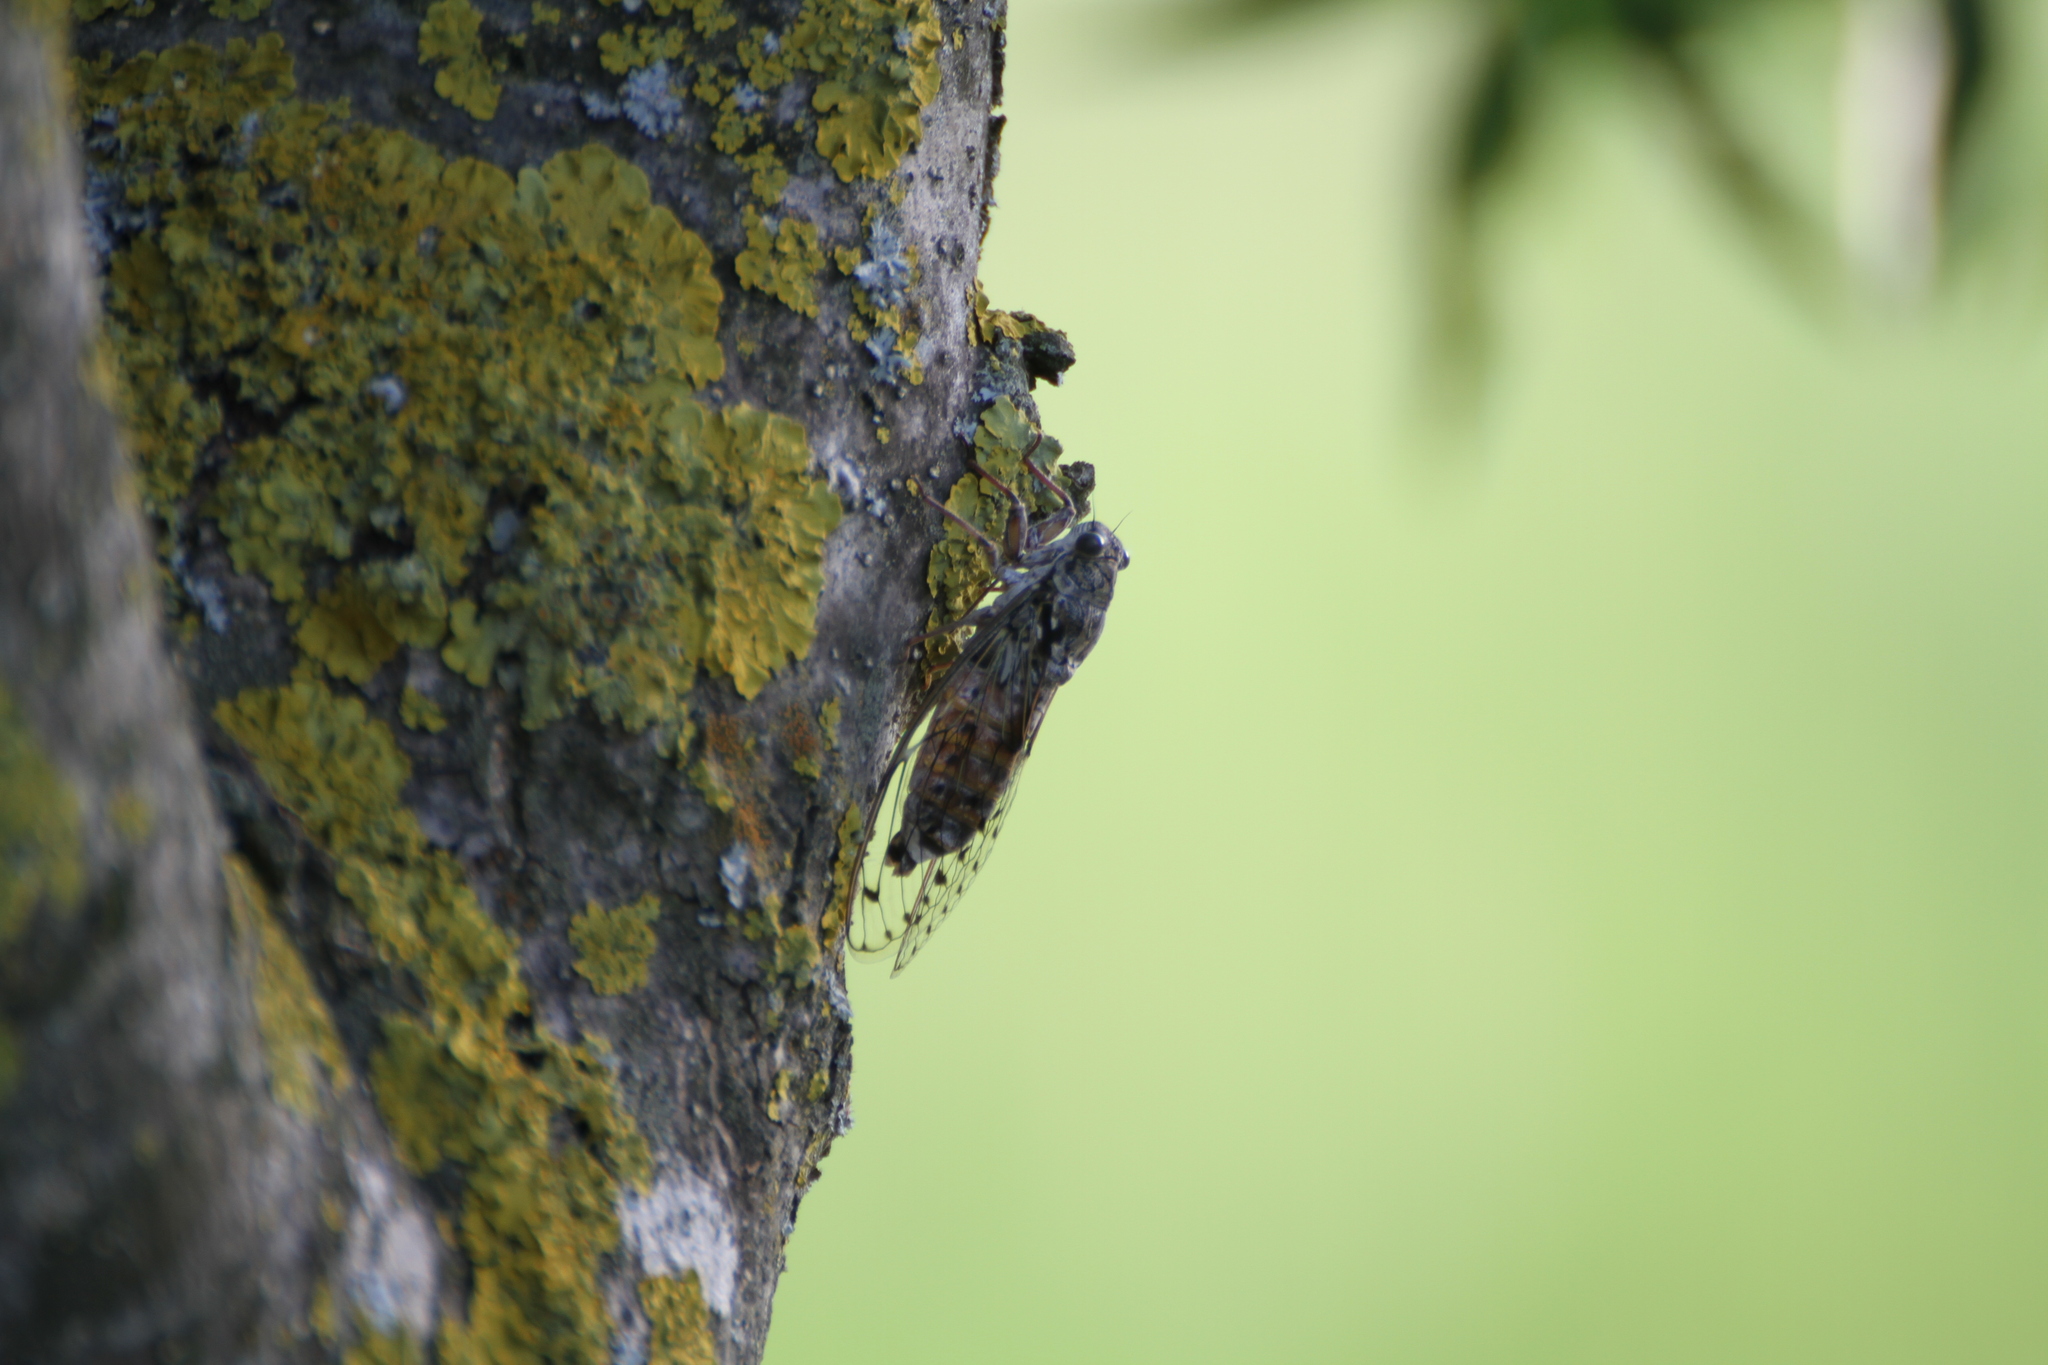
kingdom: Animalia
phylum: Arthropoda
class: Insecta
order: Hemiptera
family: Cicadidae
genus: Cicada
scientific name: Cicada orni
